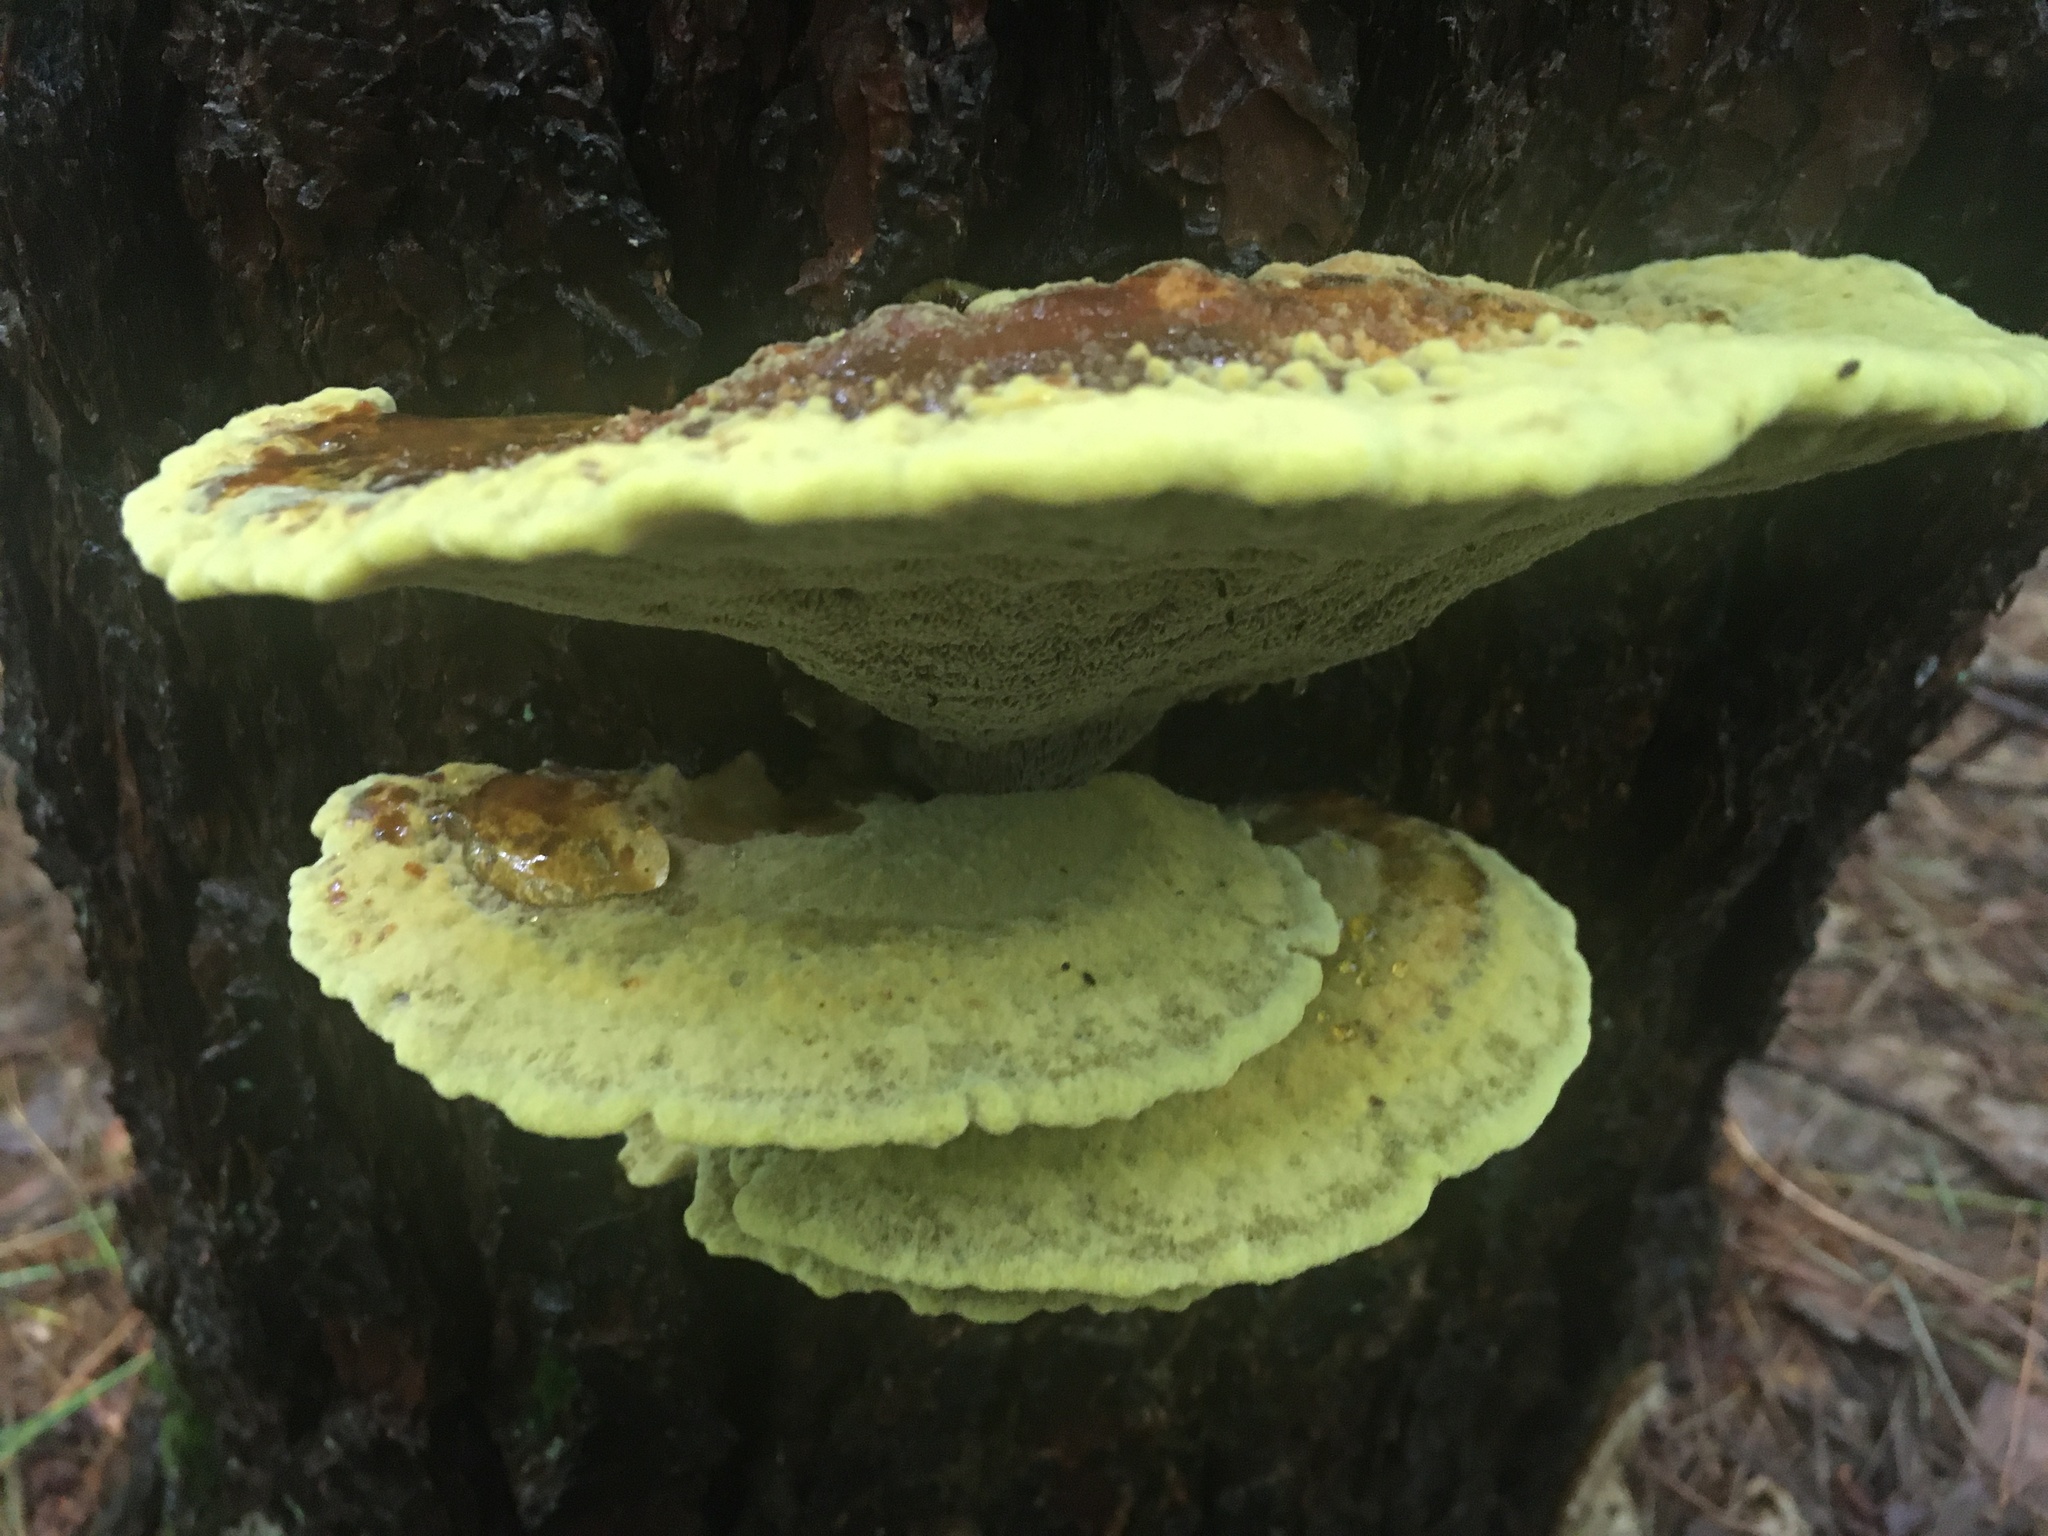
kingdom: Fungi
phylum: Basidiomycota
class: Agaricomycetes
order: Polyporales
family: Laetiporaceae
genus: Phaeolus
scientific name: Phaeolus schweinitzii
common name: Dyer's mazegill
